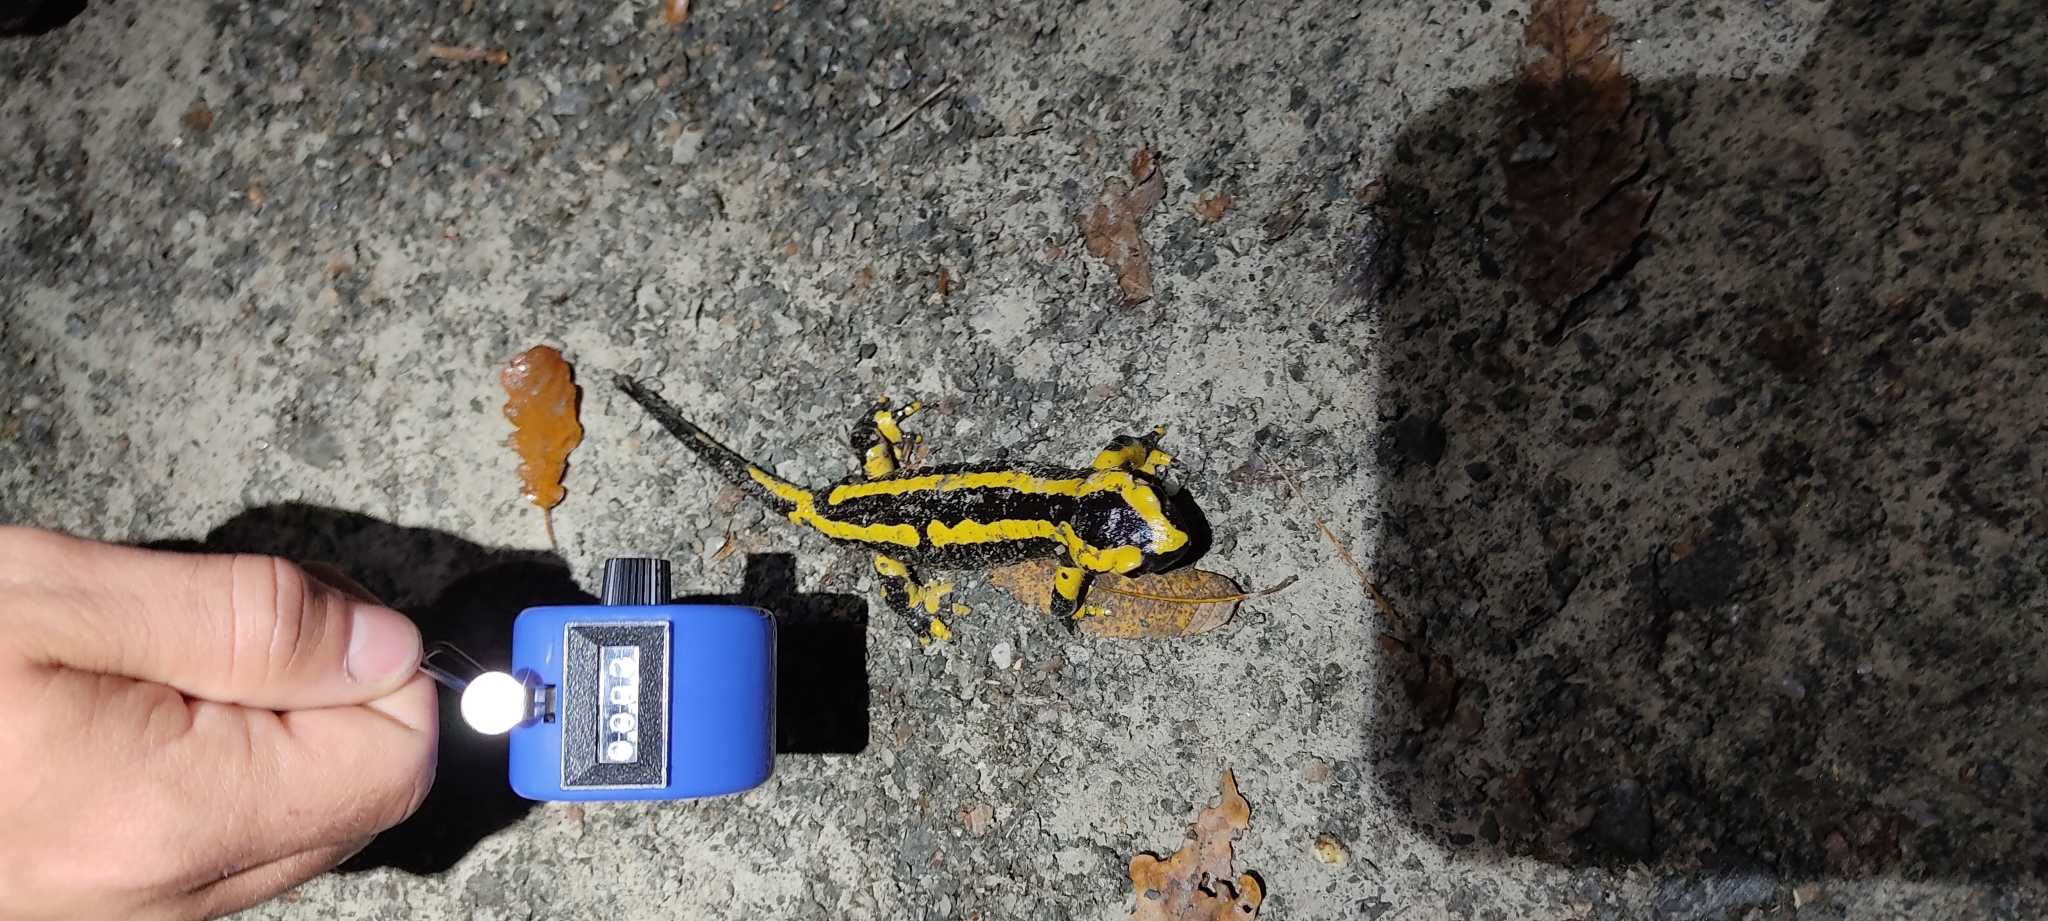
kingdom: Animalia
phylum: Chordata
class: Amphibia
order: Caudata
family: Salamandridae
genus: Salamandra
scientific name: Salamandra salamandra
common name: Fire salamander
